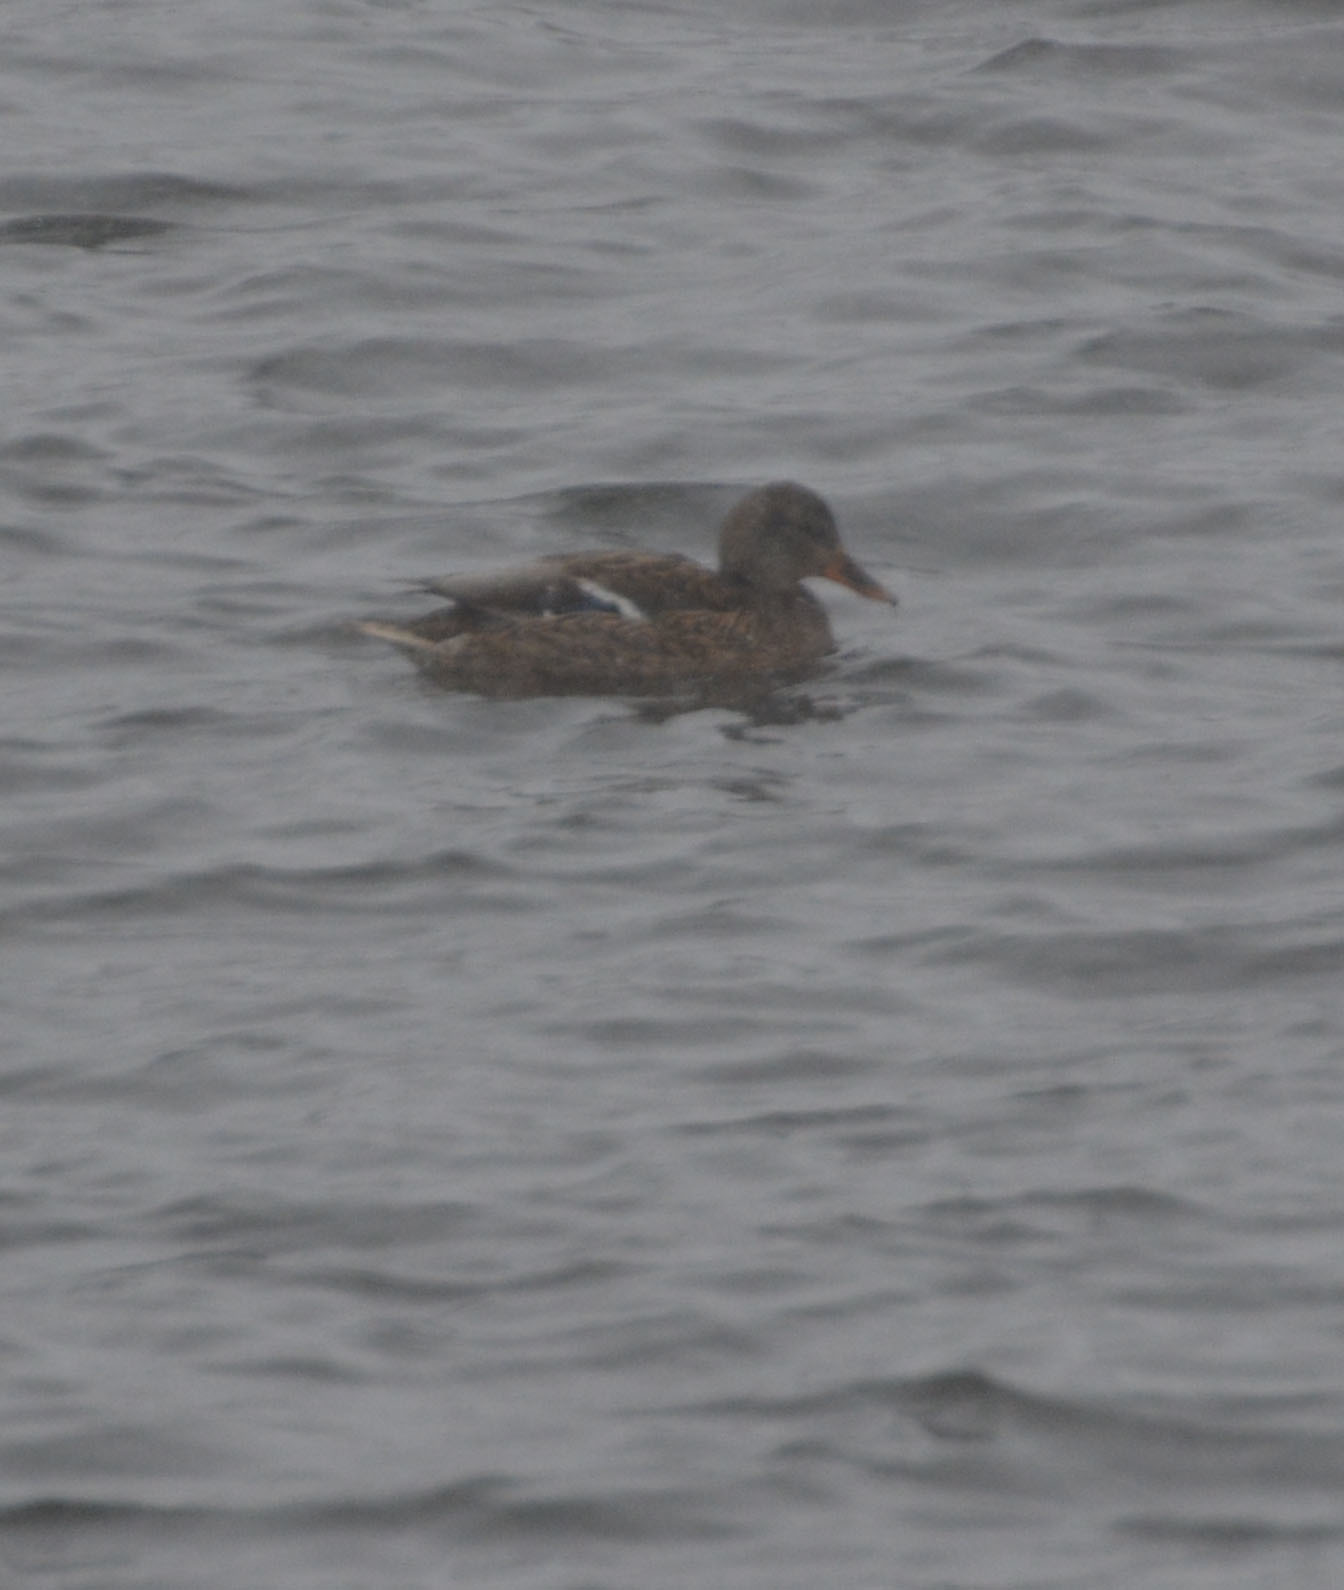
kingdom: Animalia
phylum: Chordata
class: Aves
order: Anseriformes
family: Anatidae
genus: Anas
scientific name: Anas platyrhynchos
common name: Mallard
